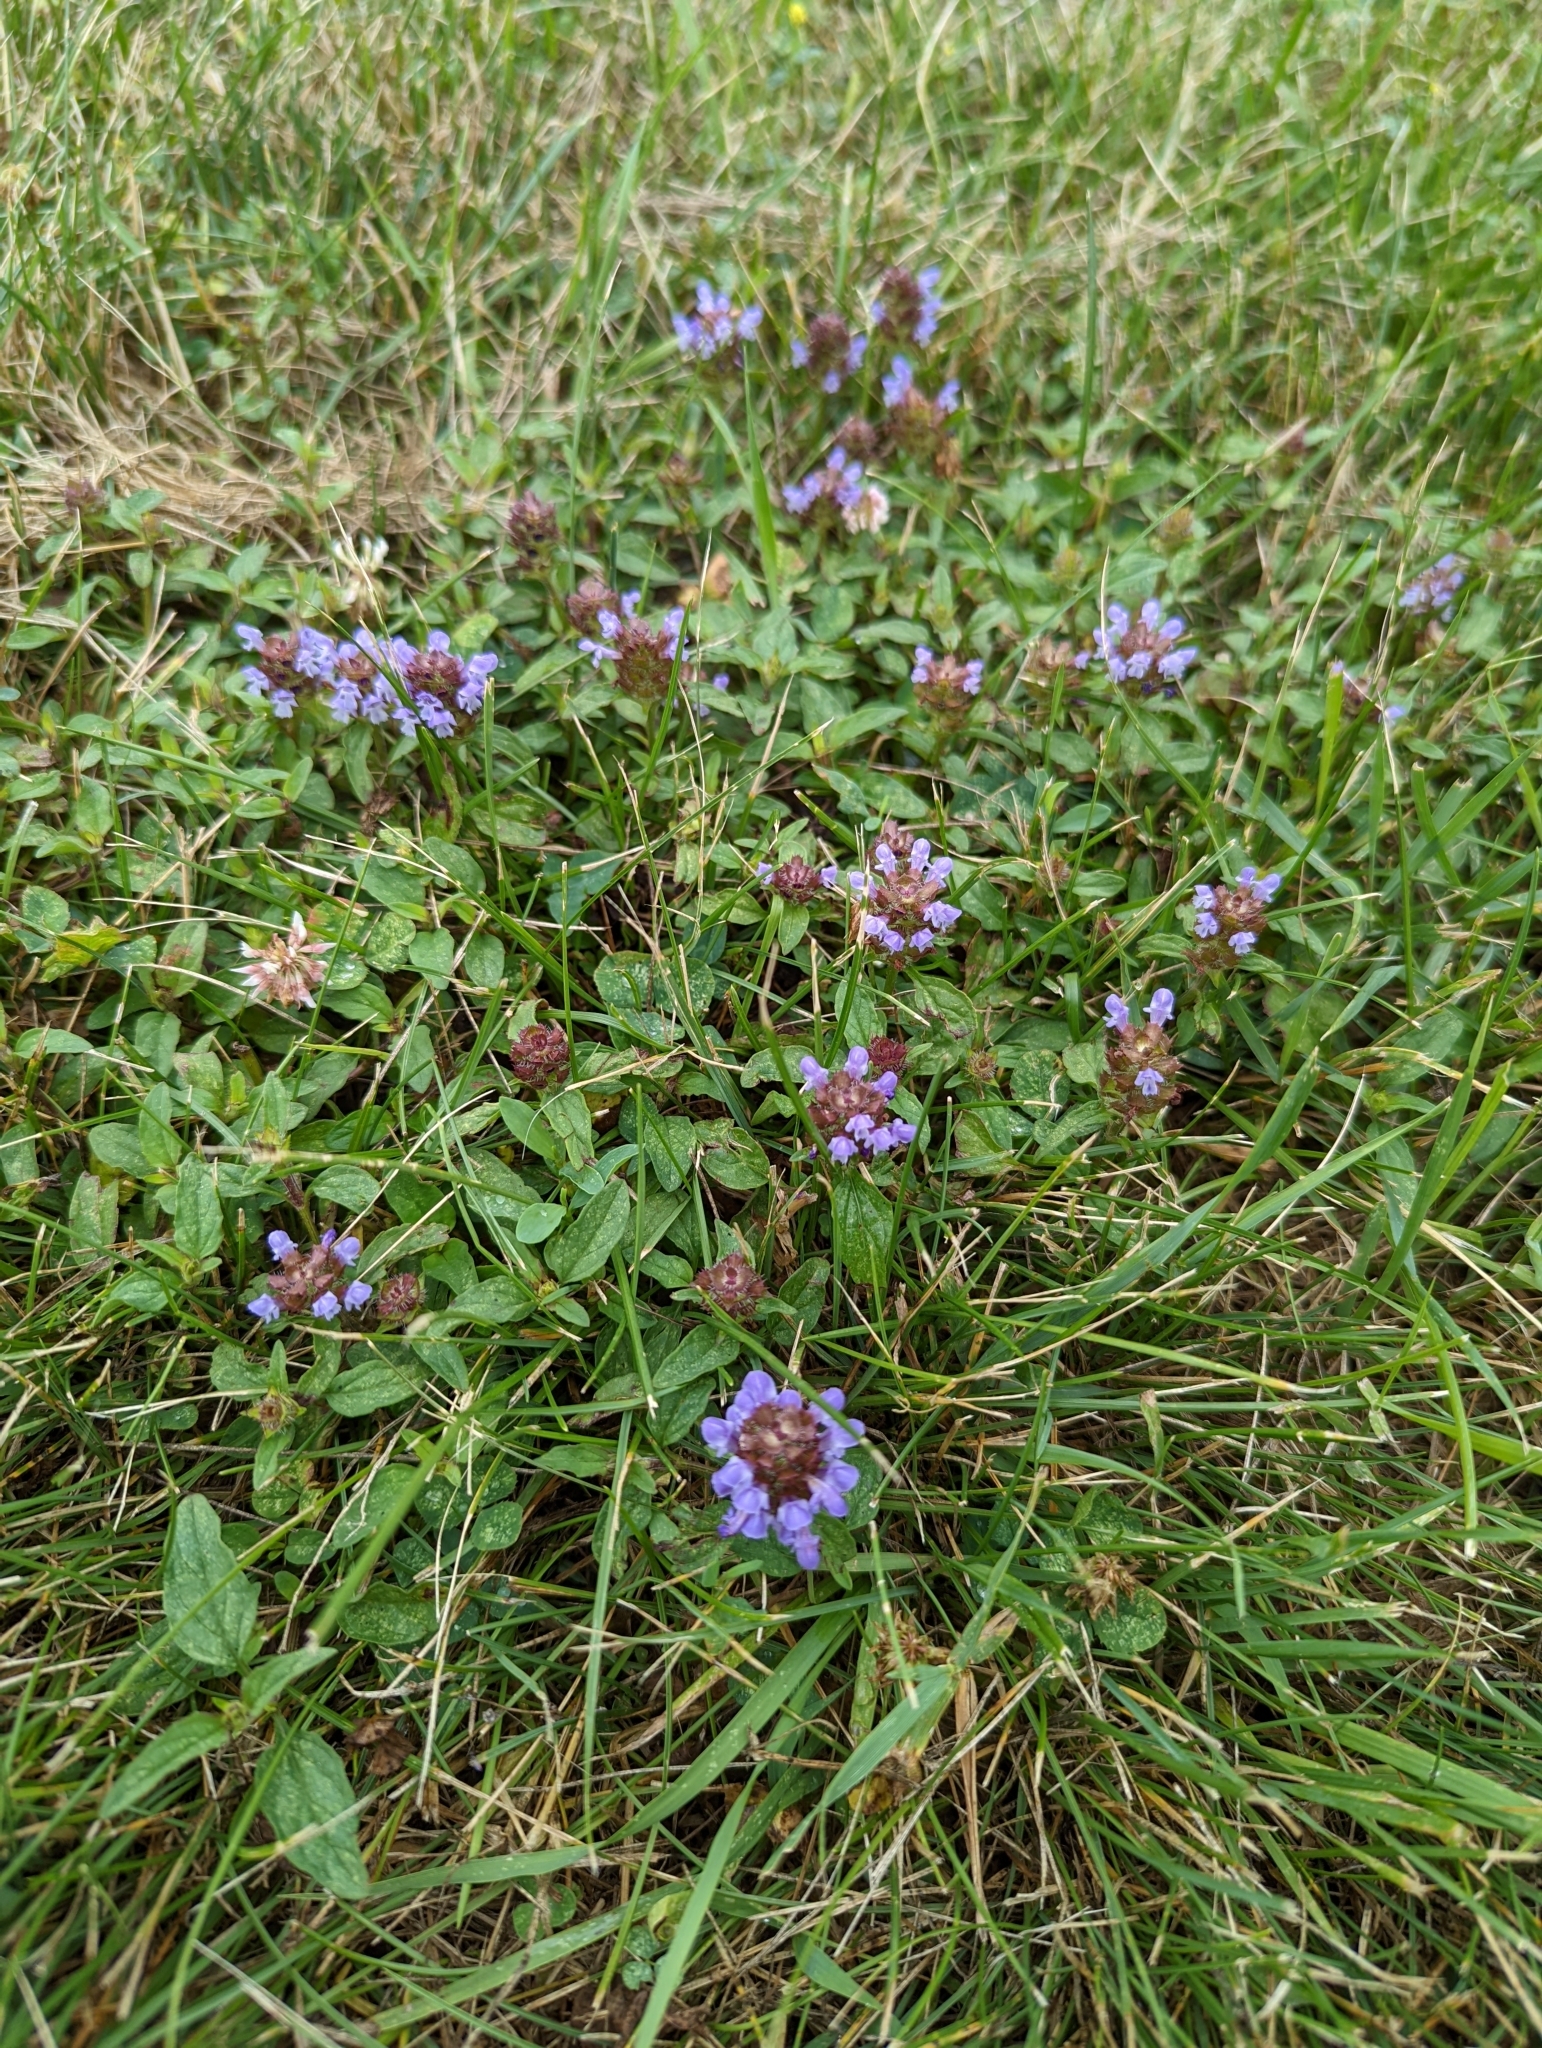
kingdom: Plantae
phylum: Tracheophyta
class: Magnoliopsida
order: Lamiales
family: Lamiaceae
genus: Prunella
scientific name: Prunella vulgaris
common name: Heal-all
